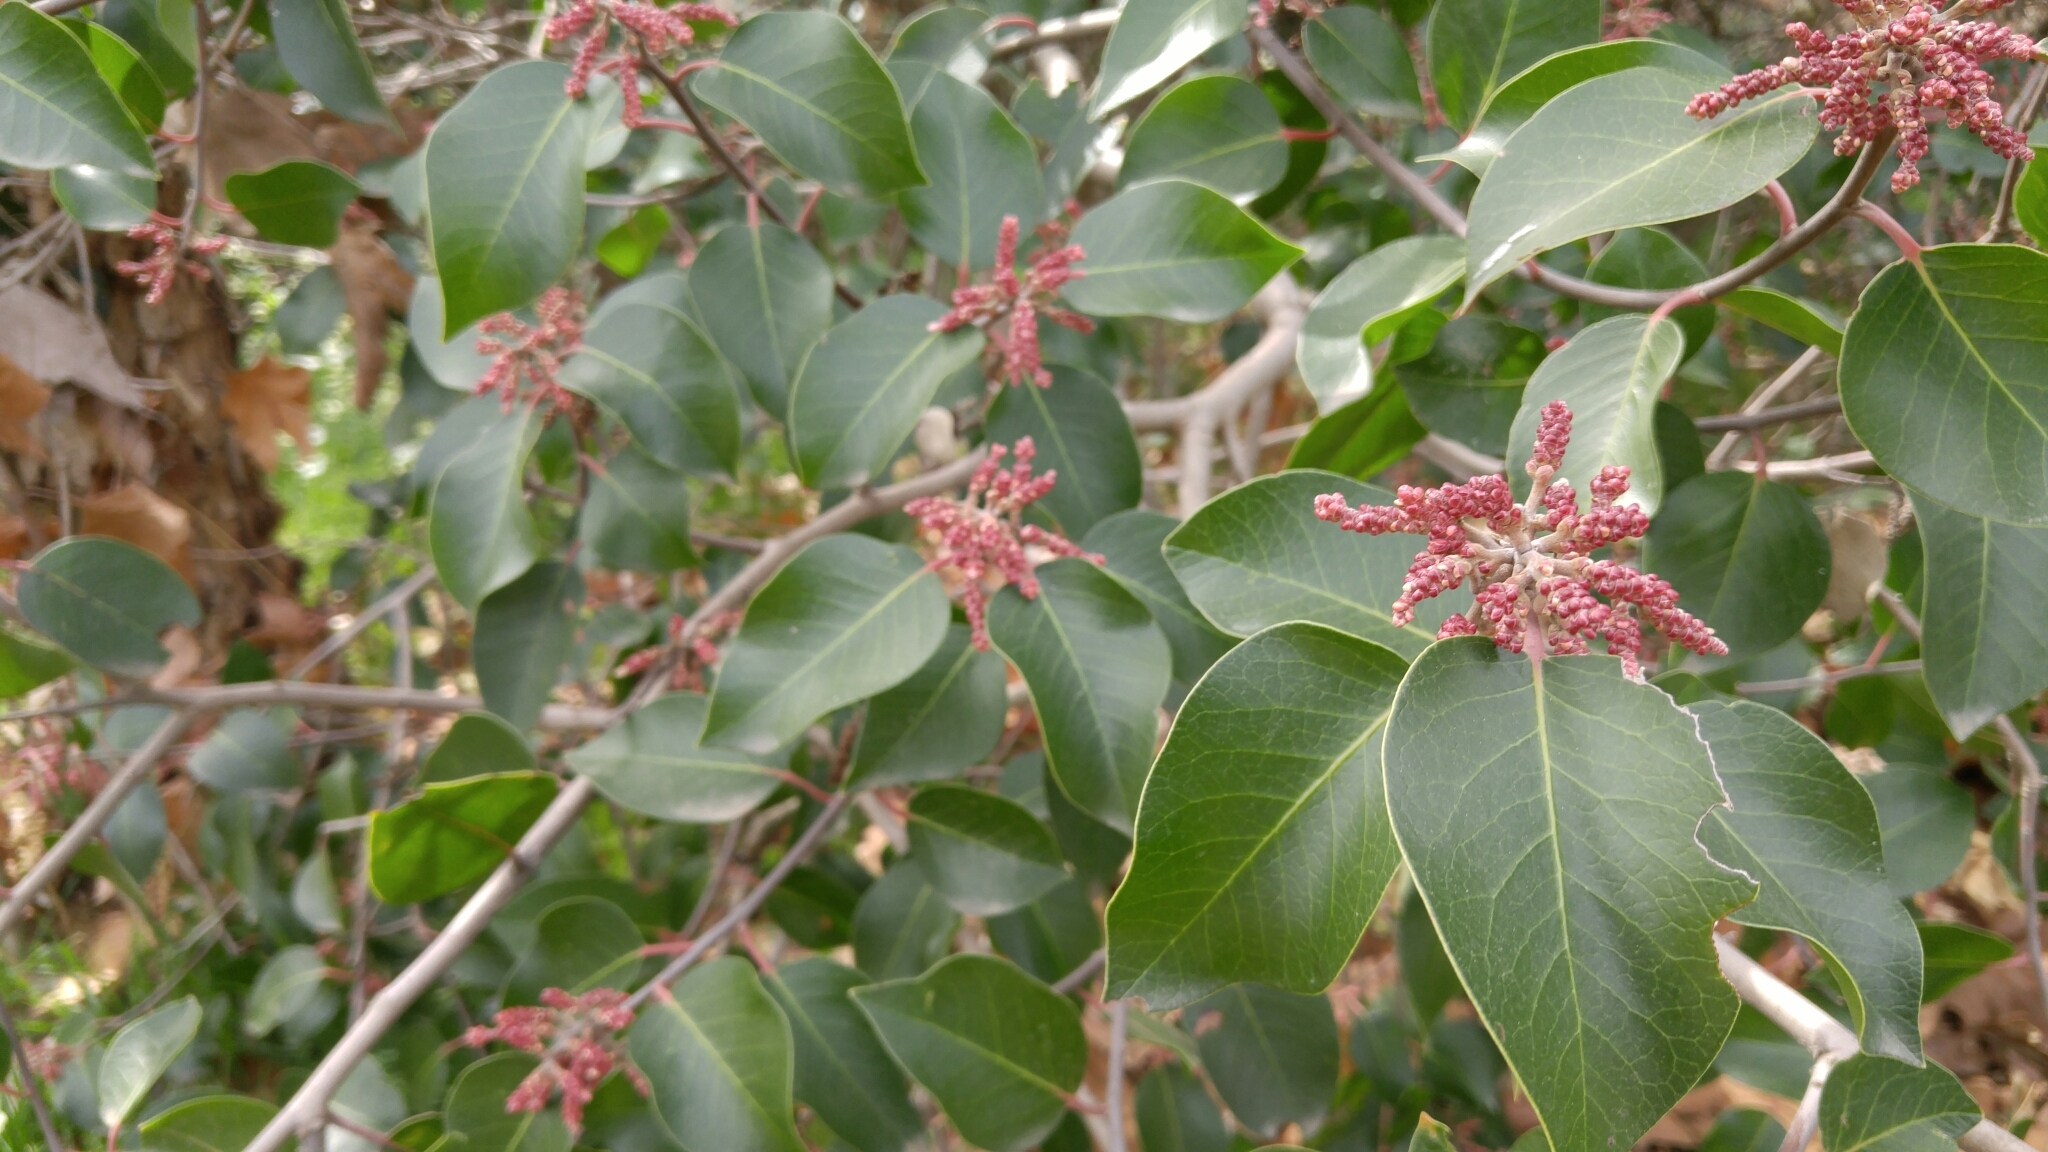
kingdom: Plantae
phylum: Tracheophyta
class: Magnoliopsida
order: Sapindales
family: Anacardiaceae
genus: Rhus
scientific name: Rhus ovata
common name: Sugar sumac
